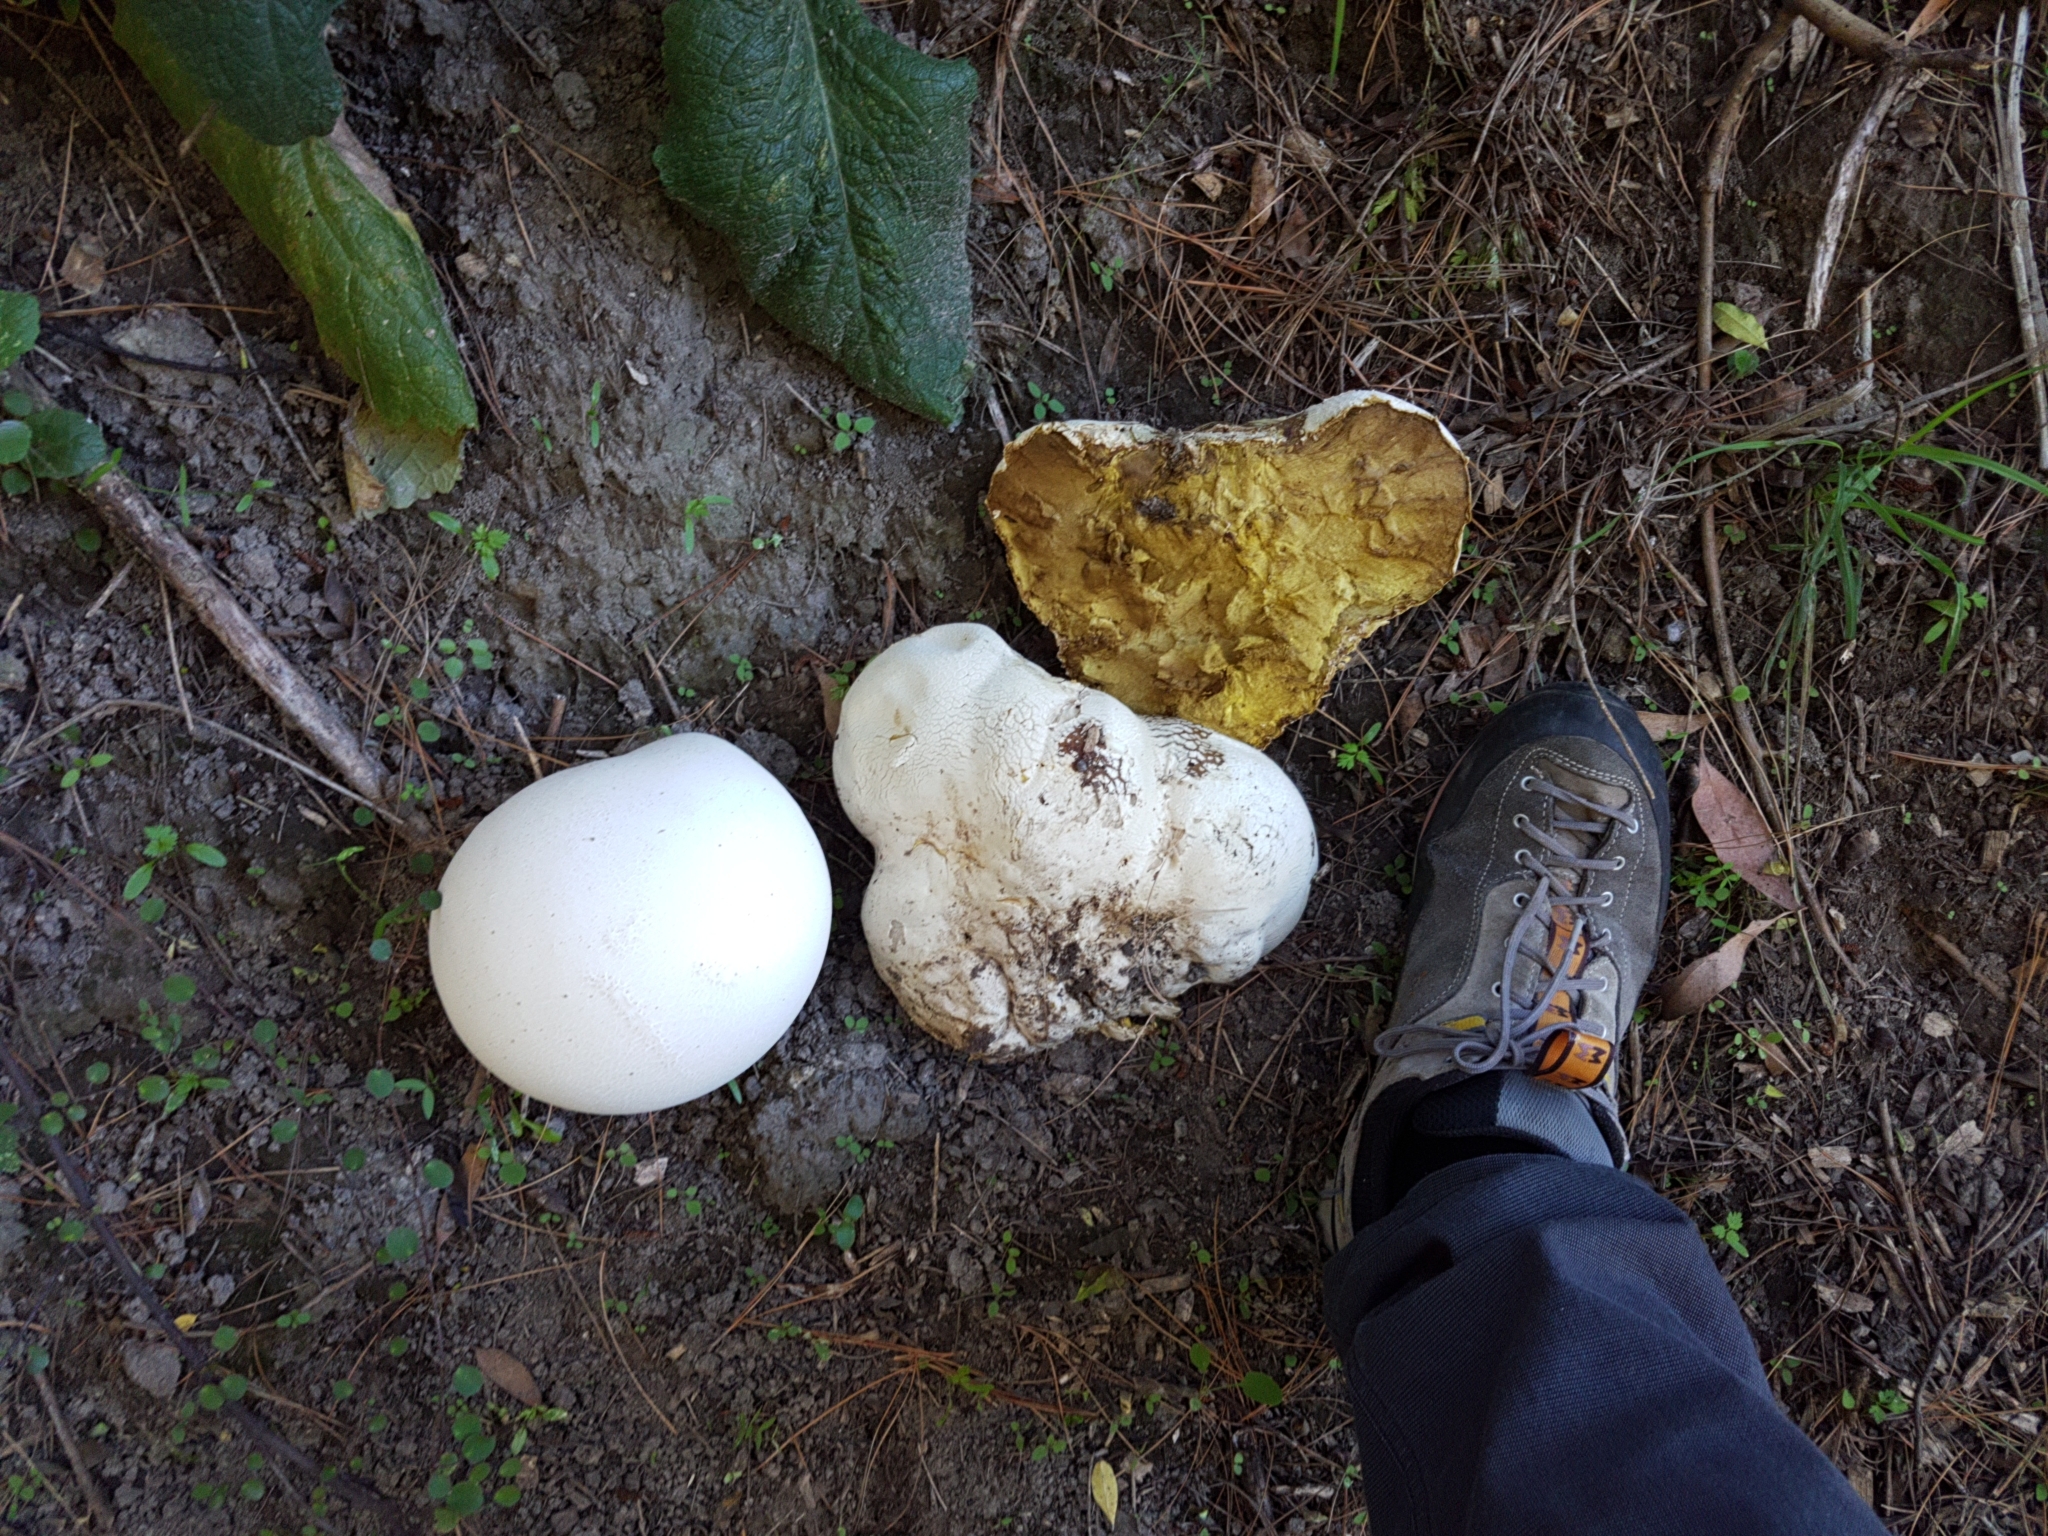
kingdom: Fungi
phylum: Basidiomycota
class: Agaricomycetes
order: Agaricales
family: Lycoperdaceae
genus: Calvatia
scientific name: Calvatia gigantea
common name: Giant puffball
